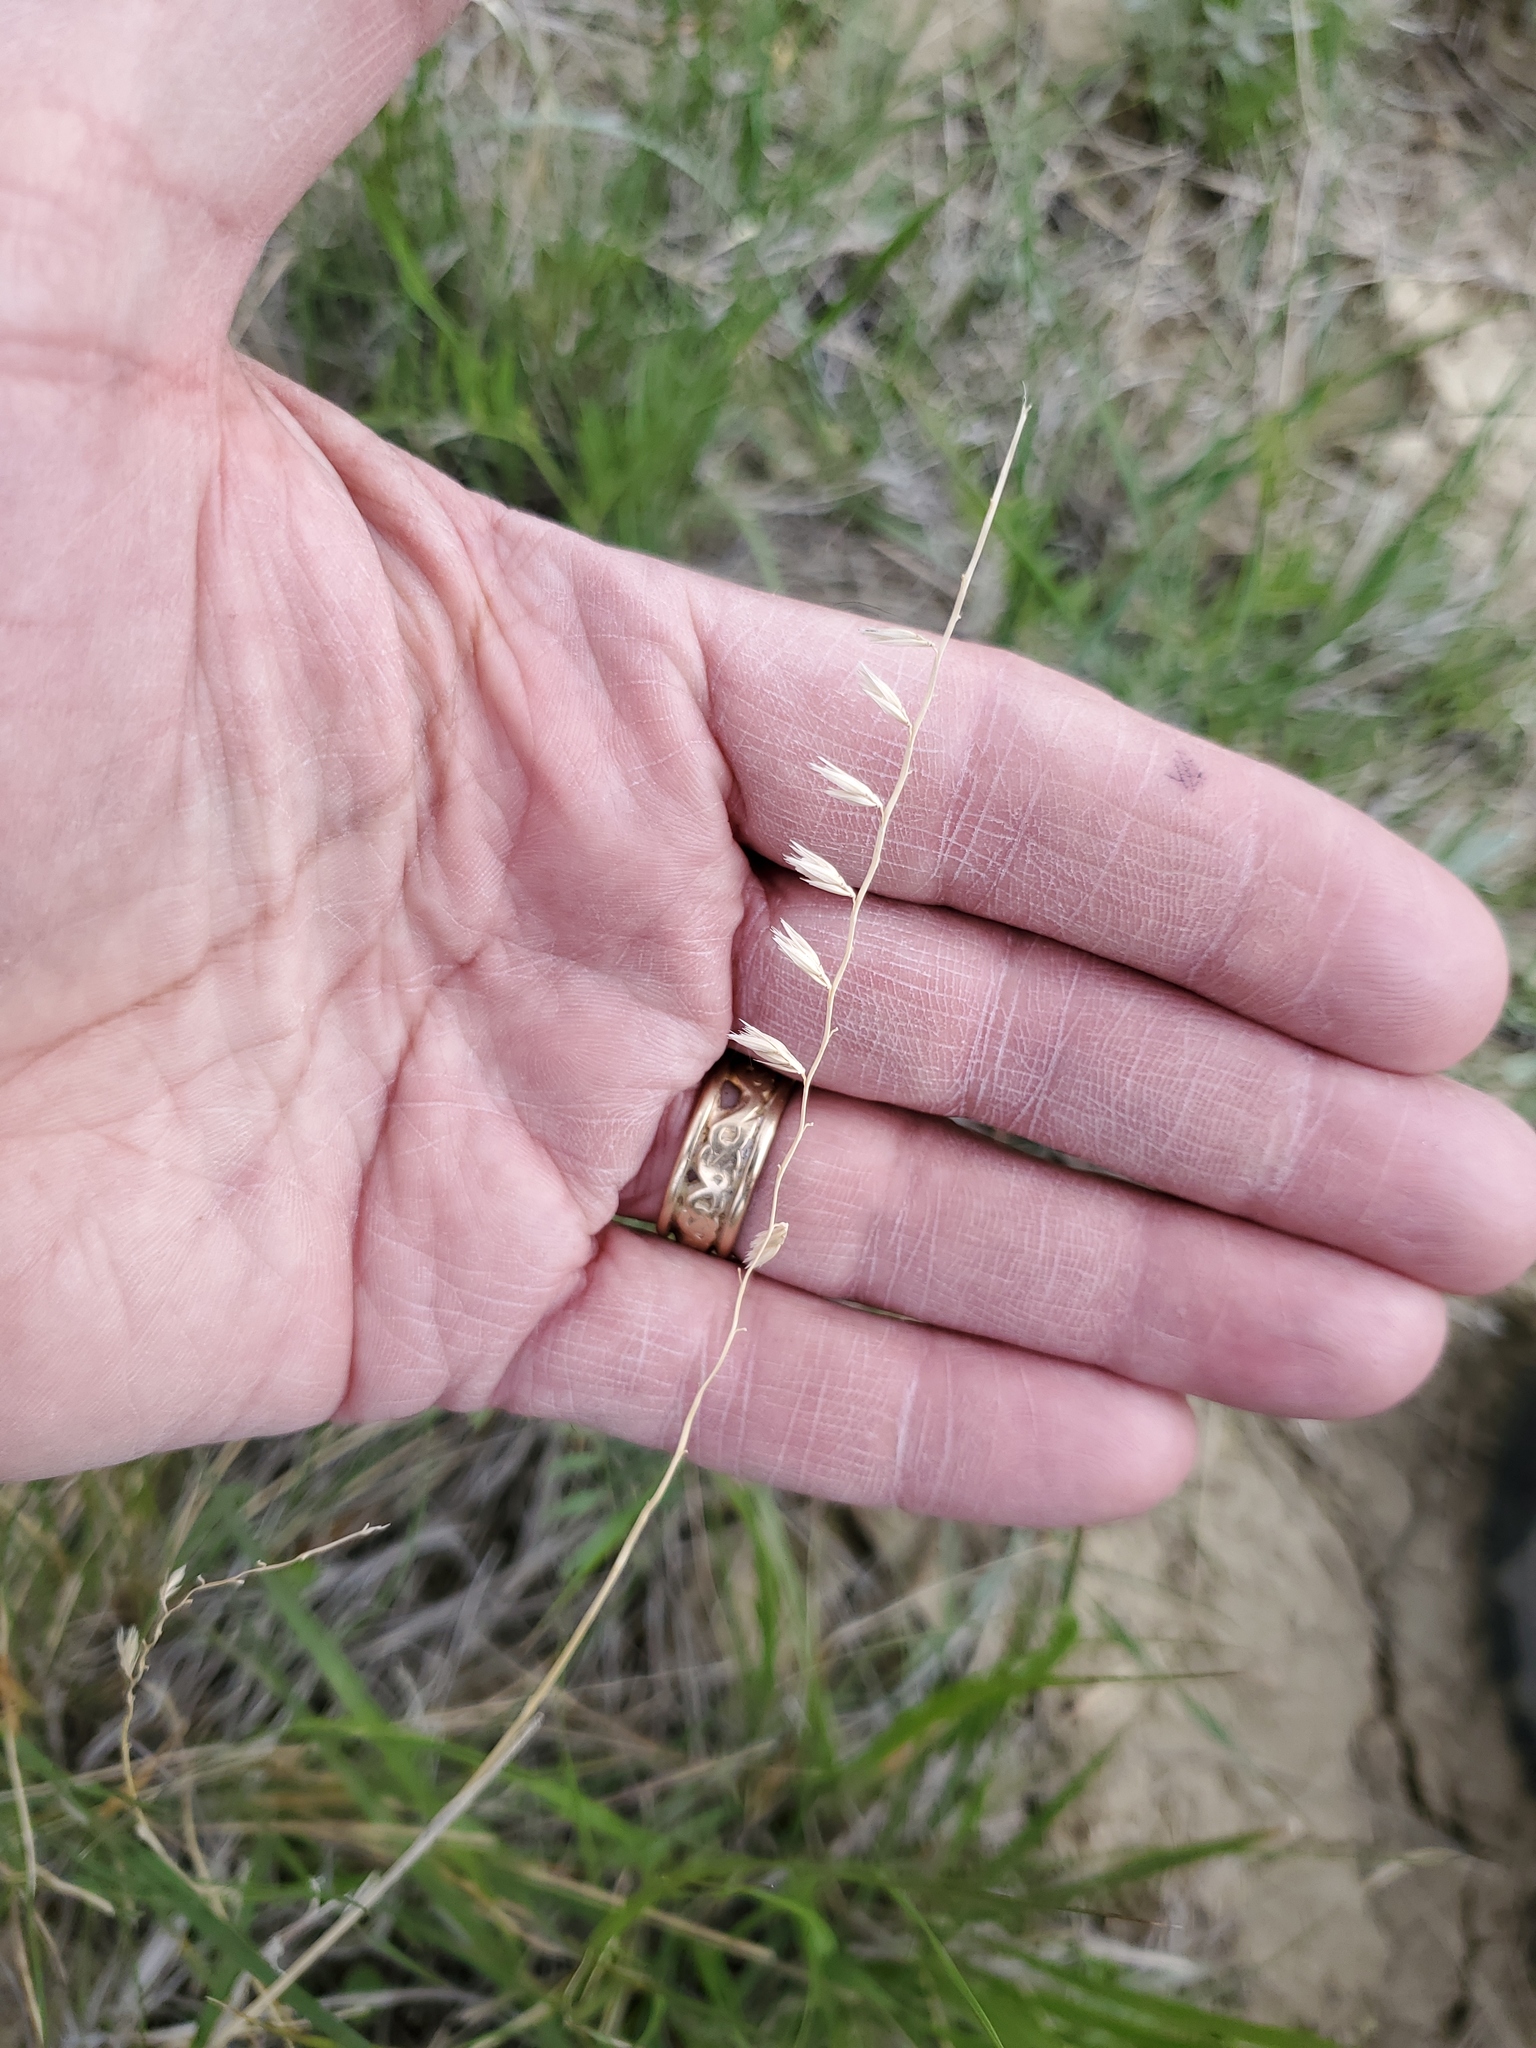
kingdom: Plantae
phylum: Tracheophyta
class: Liliopsida
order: Poales
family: Poaceae
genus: Bouteloua
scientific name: Bouteloua curtipendula
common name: Side-oats grama
